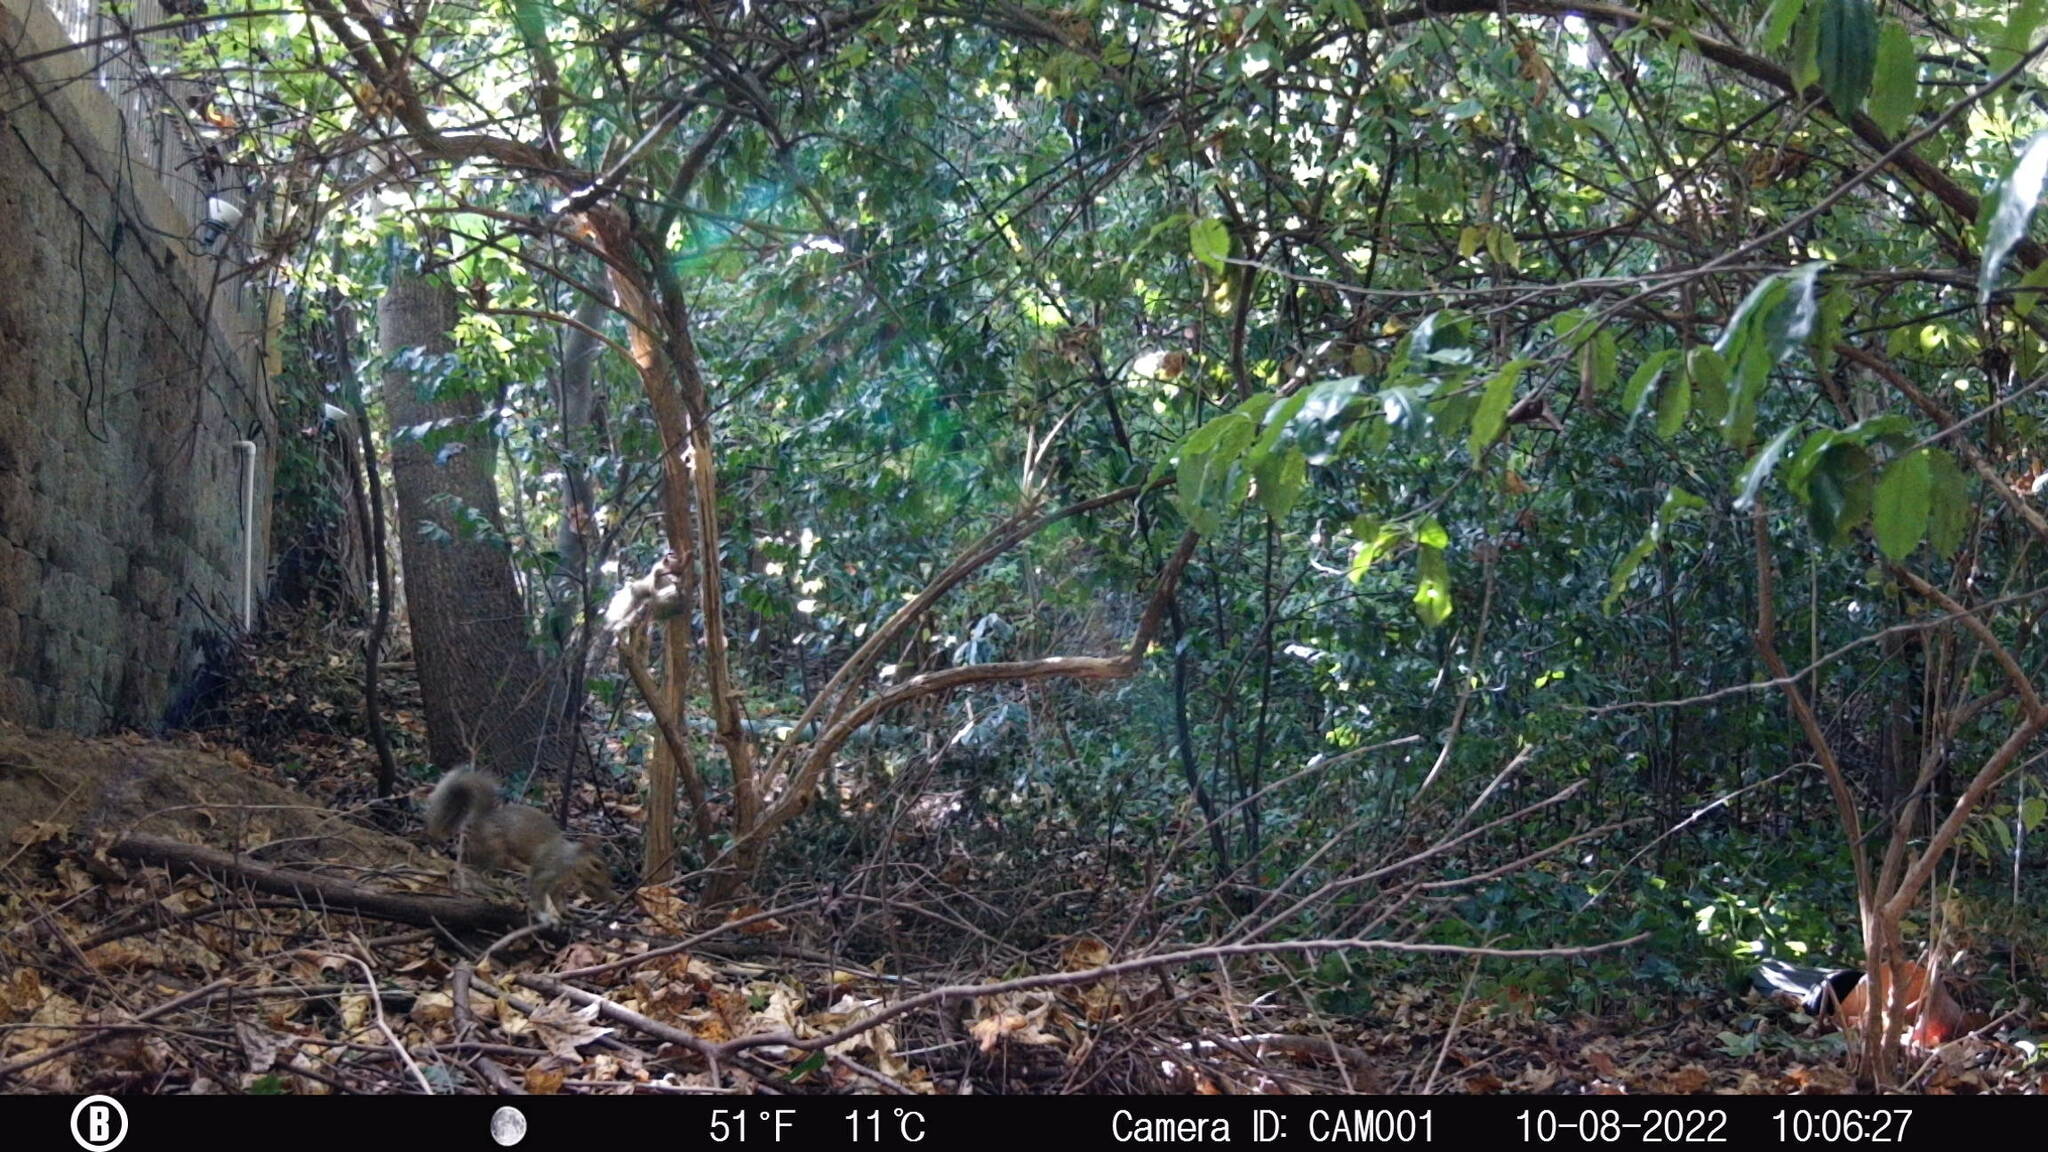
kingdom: Animalia
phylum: Chordata
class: Mammalia
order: Rodentia
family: Sciuridae
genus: Sciurus
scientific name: Sciurus carolinensis
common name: Eastern gray squirrel
